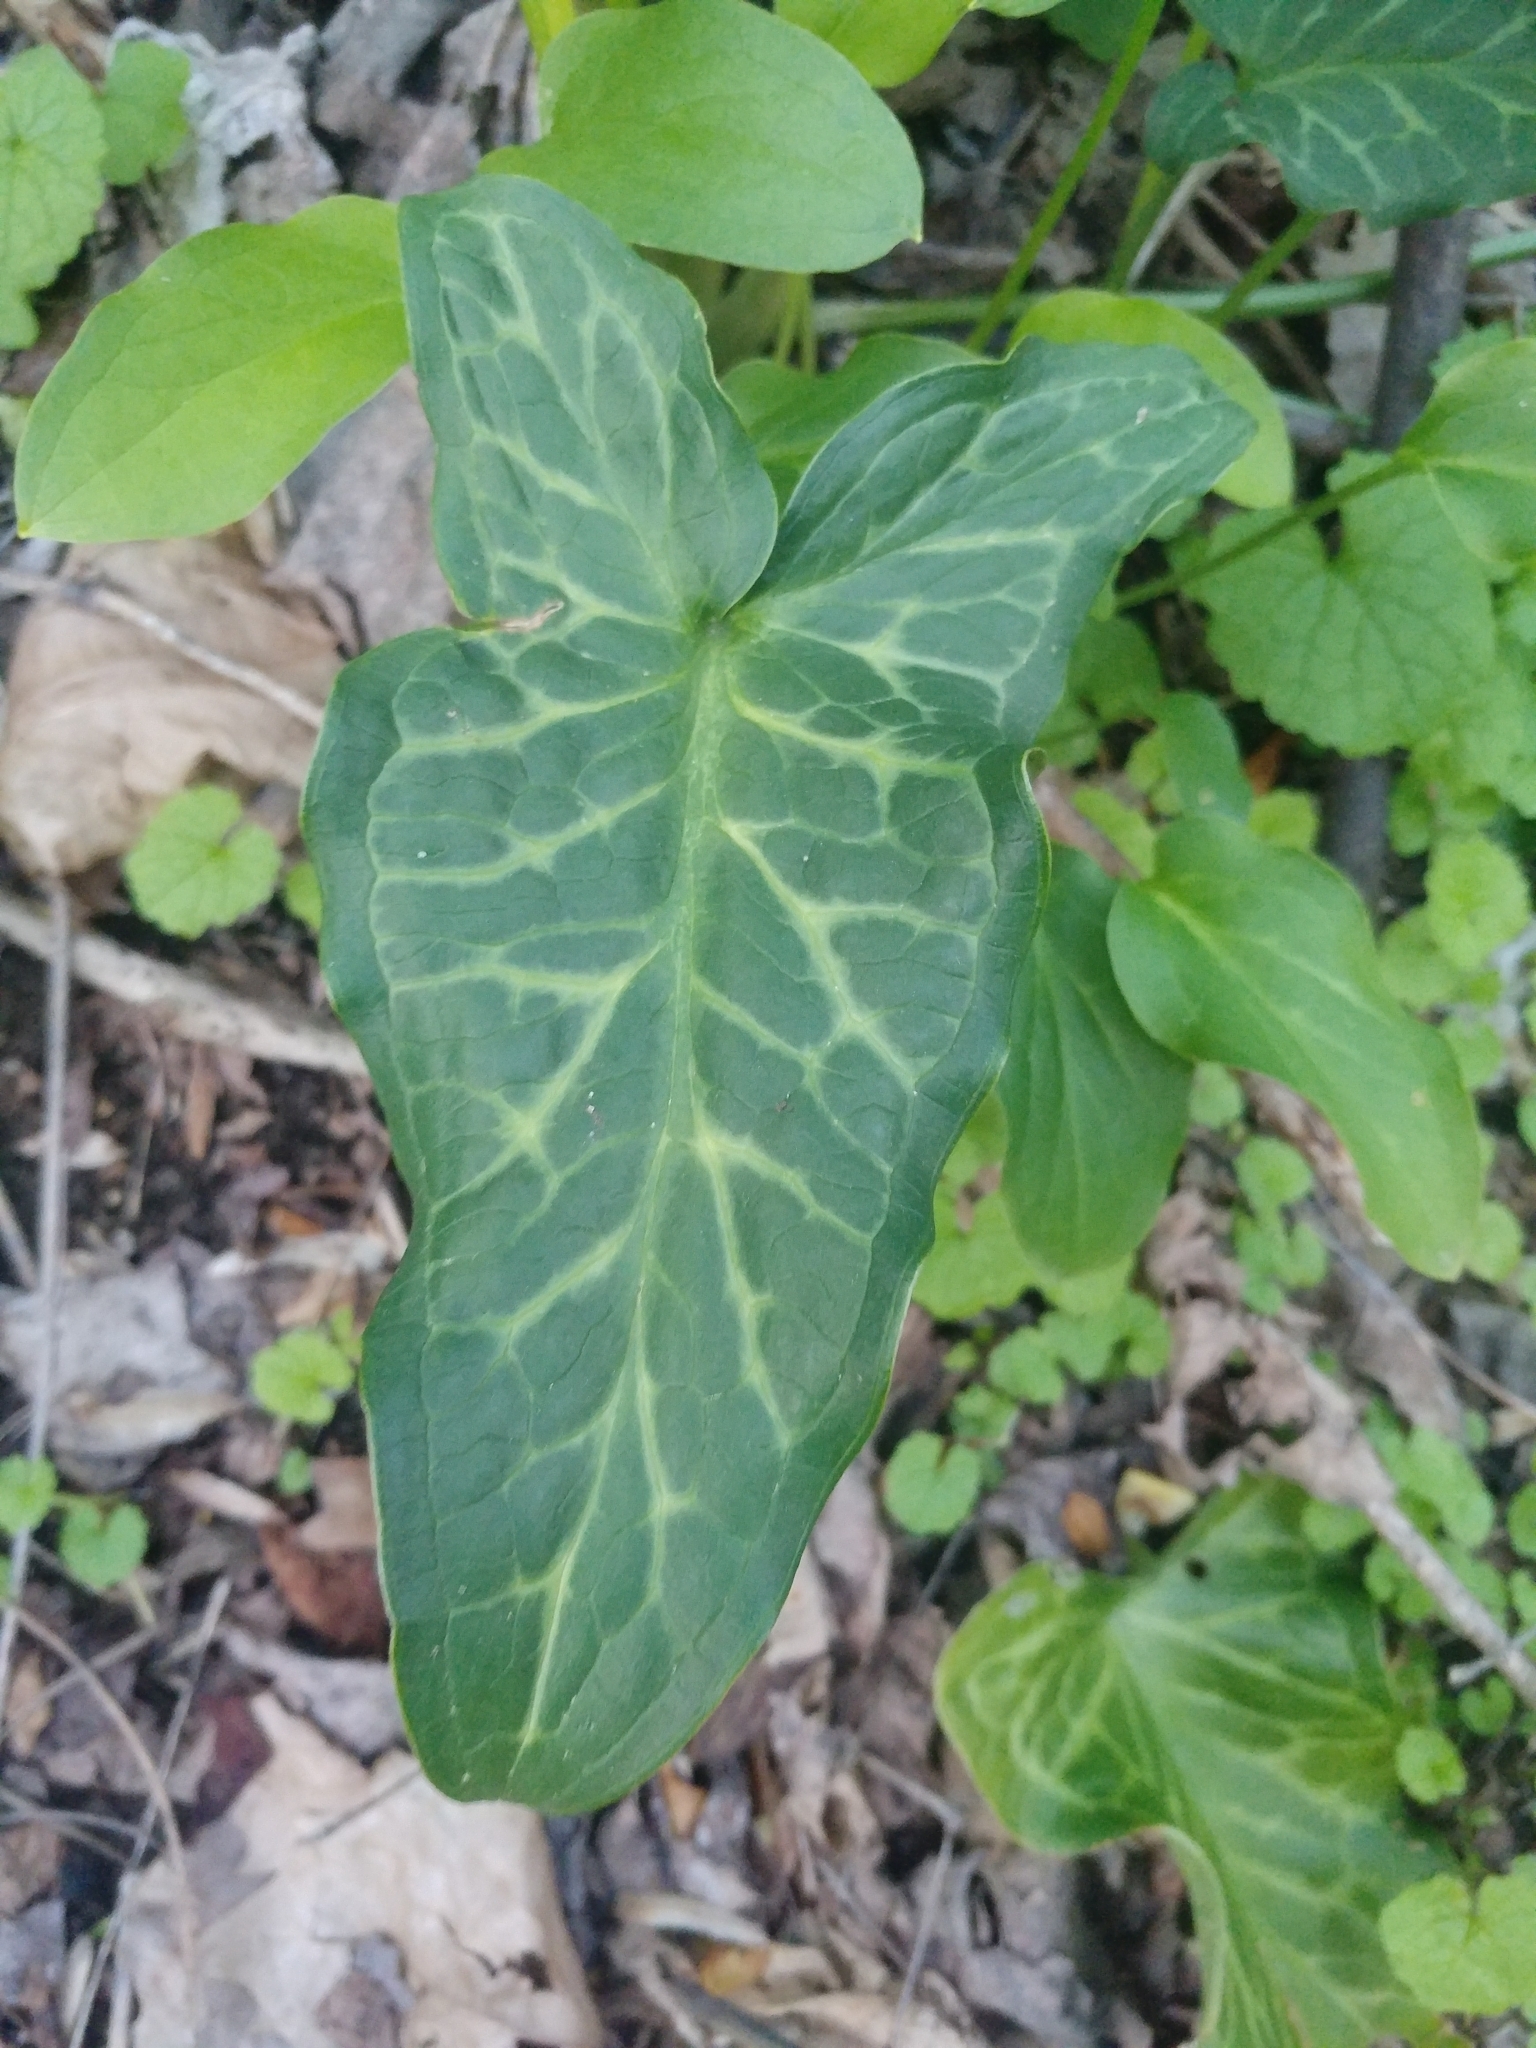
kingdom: Plantae
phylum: Tracheophyta
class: Liliopsida
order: Alismatales
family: Araceae
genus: Arum
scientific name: Arum italicum
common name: Italian lords-and-ladies
